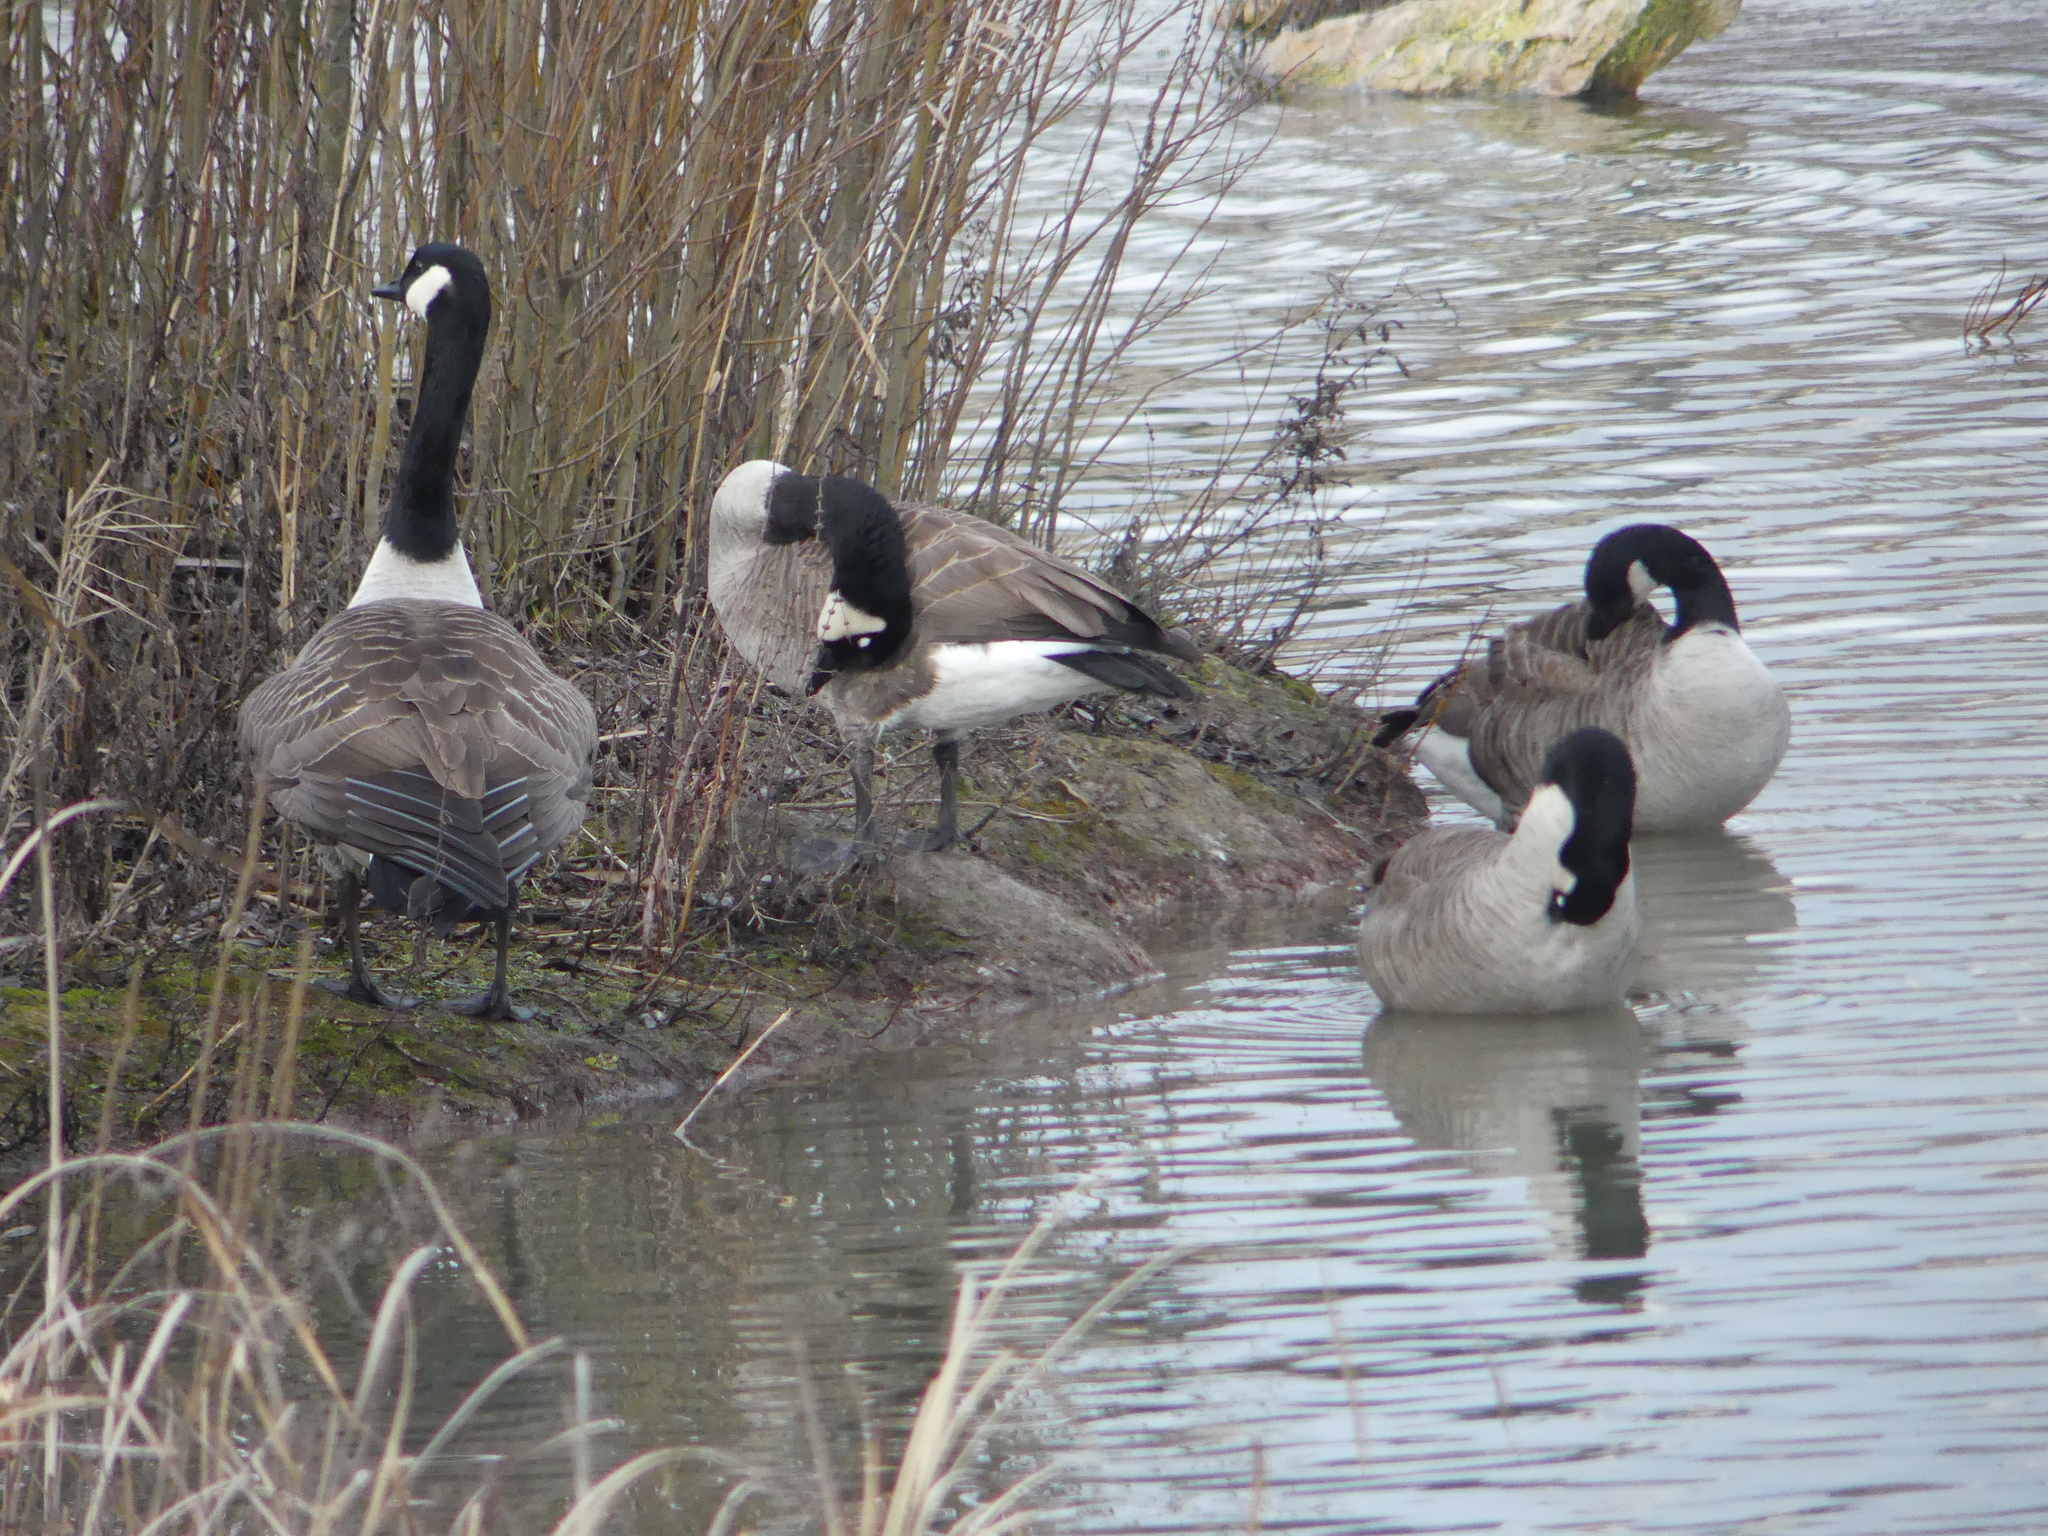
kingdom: Animalia
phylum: Chordata
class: Aves
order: Anseriformes
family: Anatidae
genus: Branta
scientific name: Branta canadensis
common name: Canada goose
